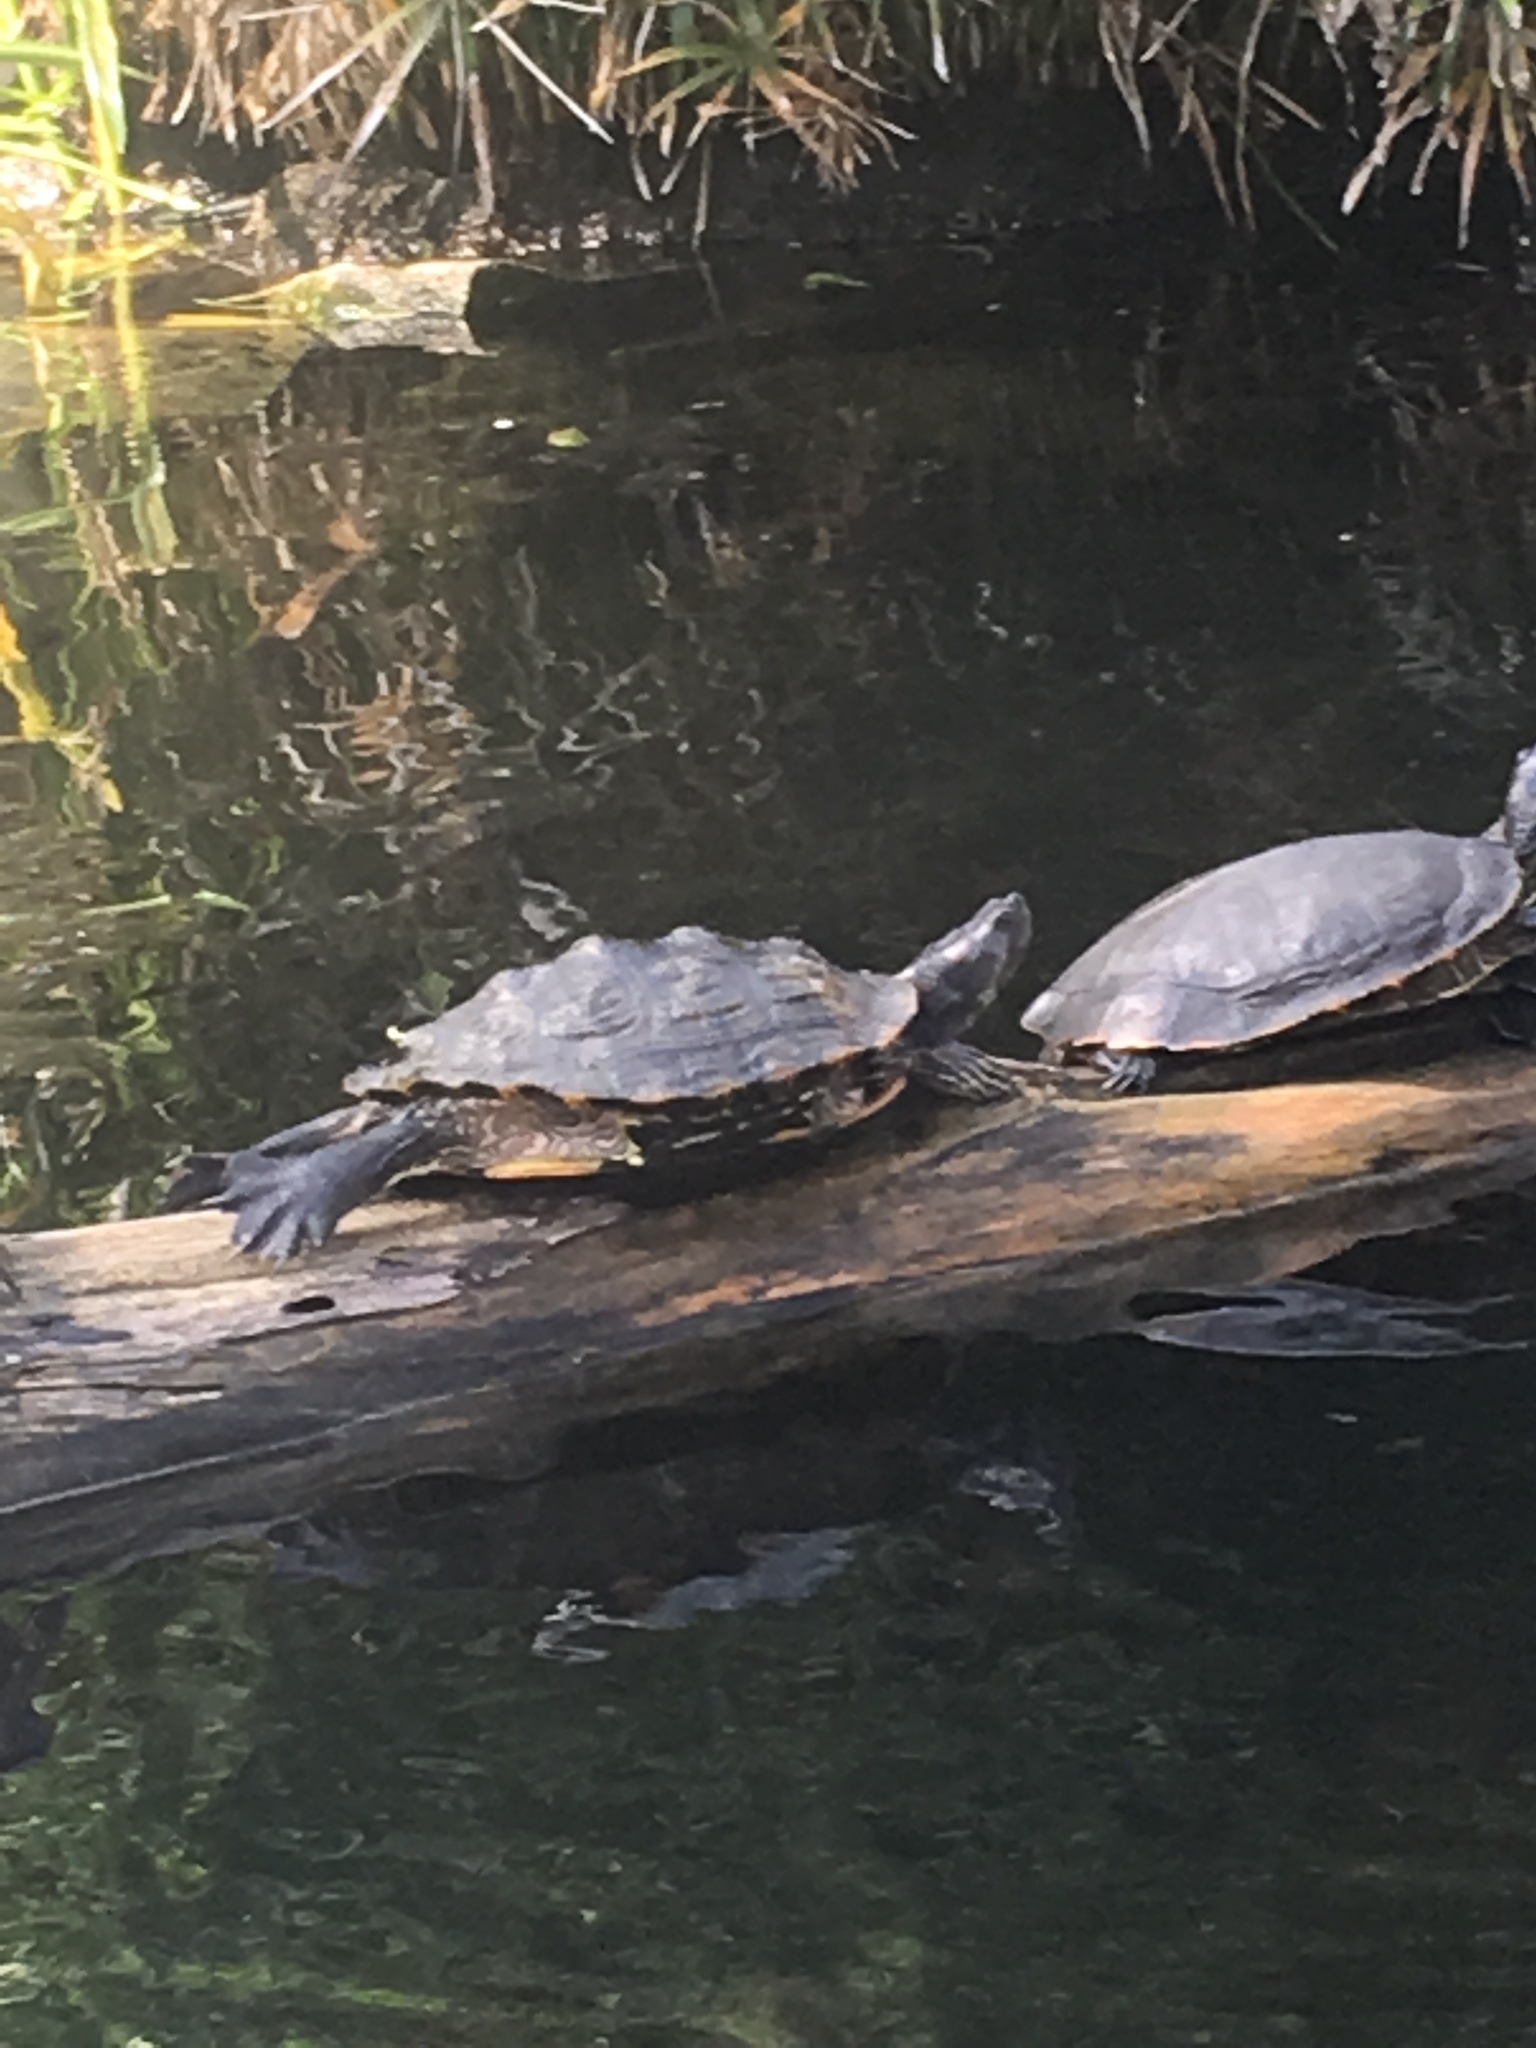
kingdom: Animalia
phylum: Chordata
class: Testudines
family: Emydidae
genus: Trachemys
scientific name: Trachemys scripta
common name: Slider
